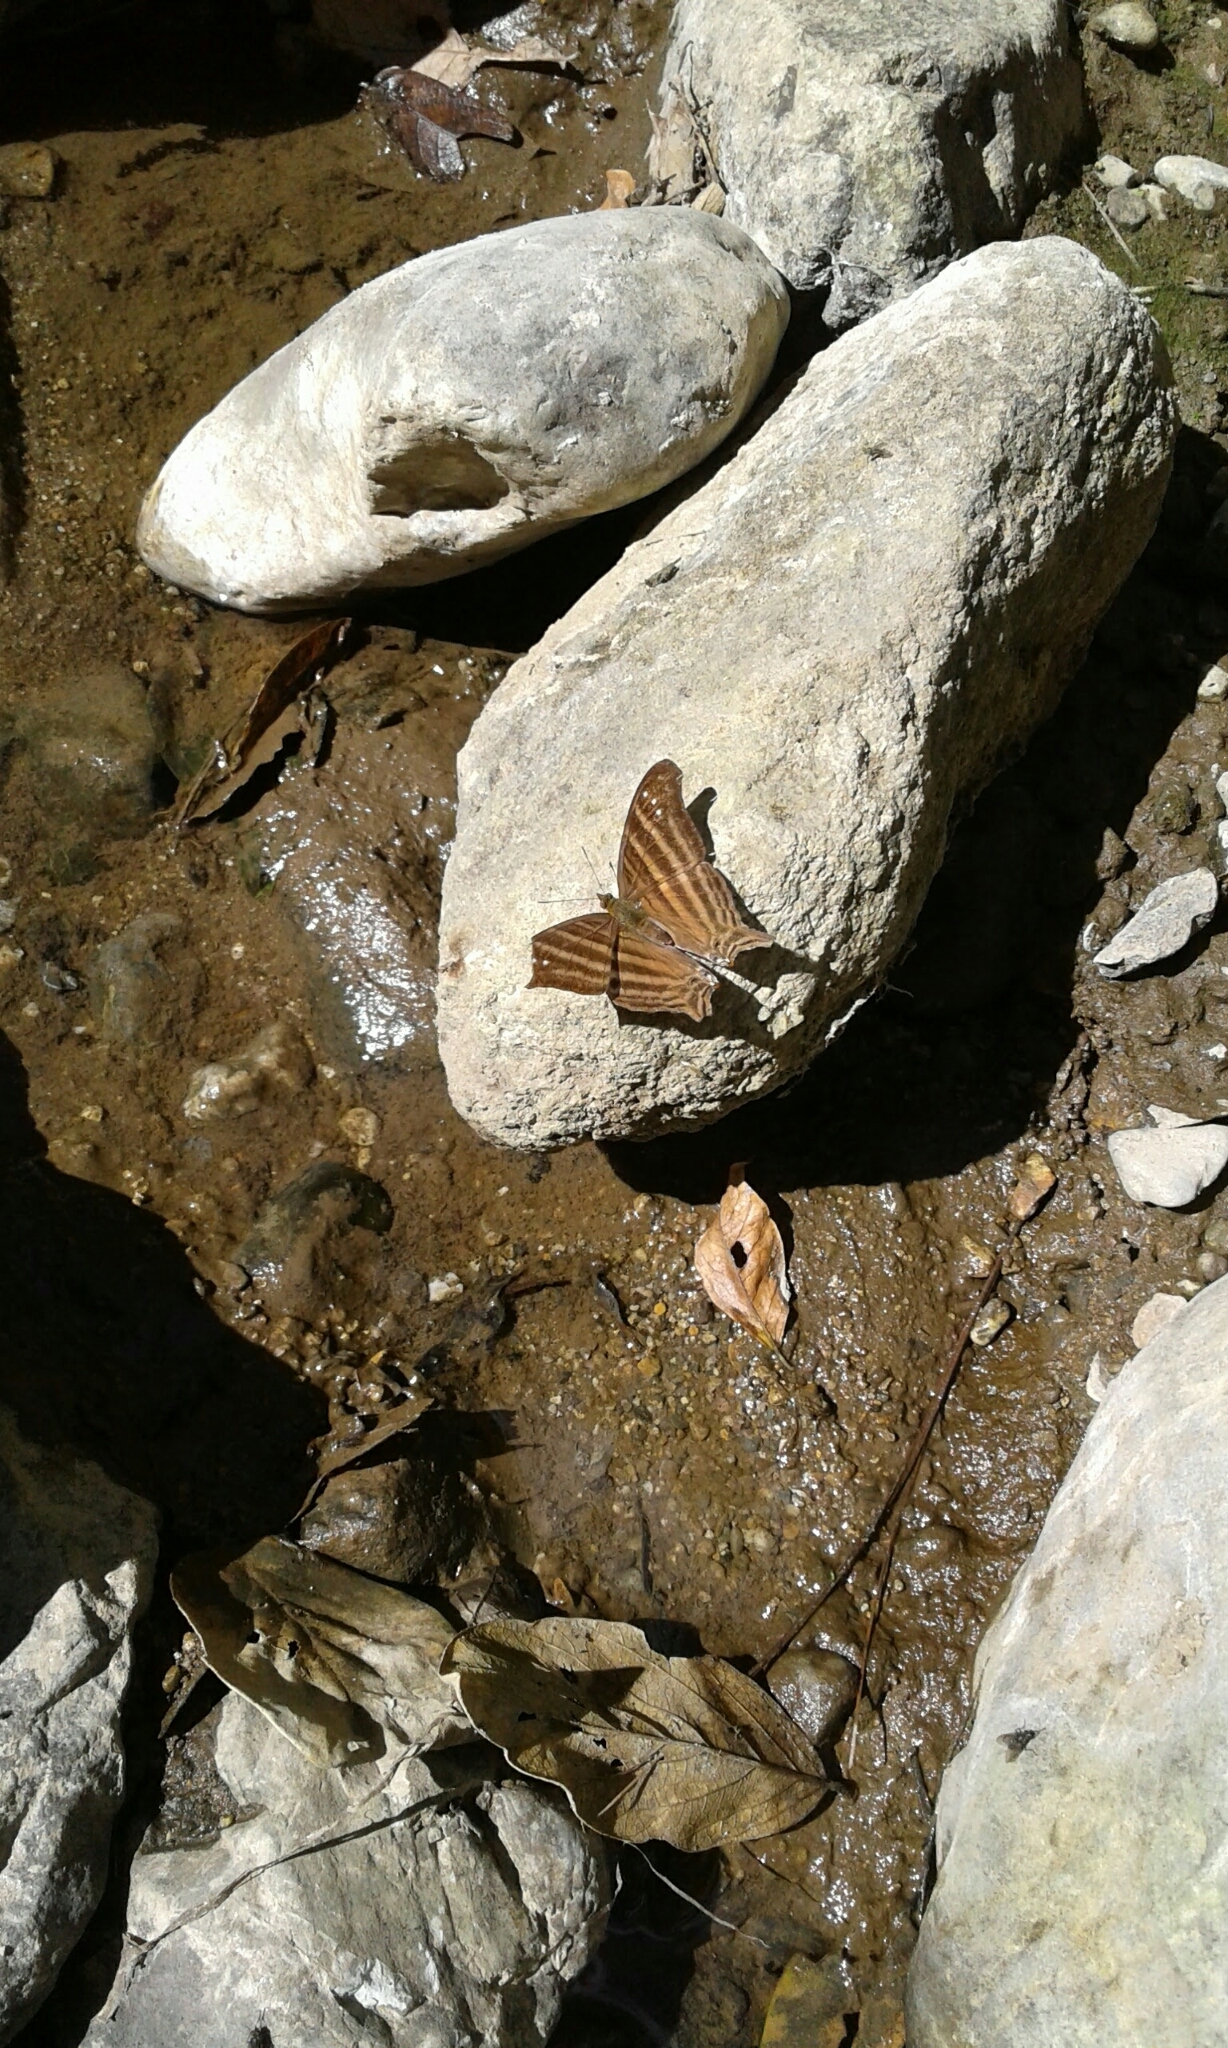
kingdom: Animalia
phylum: Arthropoda
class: Insecta
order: Lepidoptera
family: Nymphalidae
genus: Marpesia
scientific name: Marpesia chiron
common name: Many-banded daggerwing
